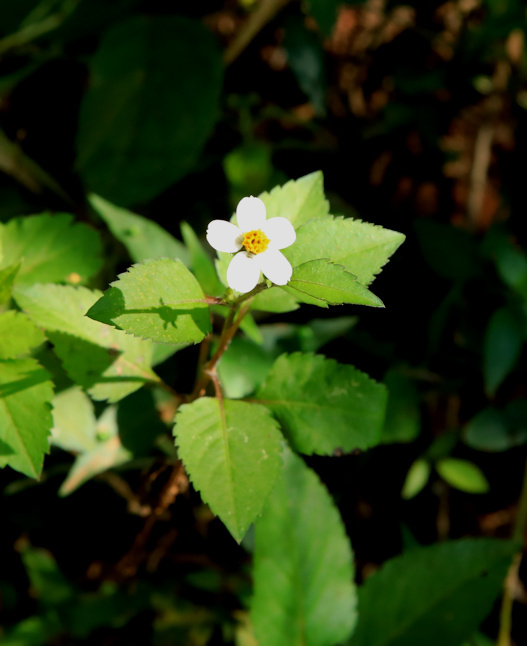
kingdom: Plantae
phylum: Tracheophyta
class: Magnoliopsida
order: Asterales
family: Asteraceae
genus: Bidens
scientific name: Bidens pilosa
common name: Black-jack
